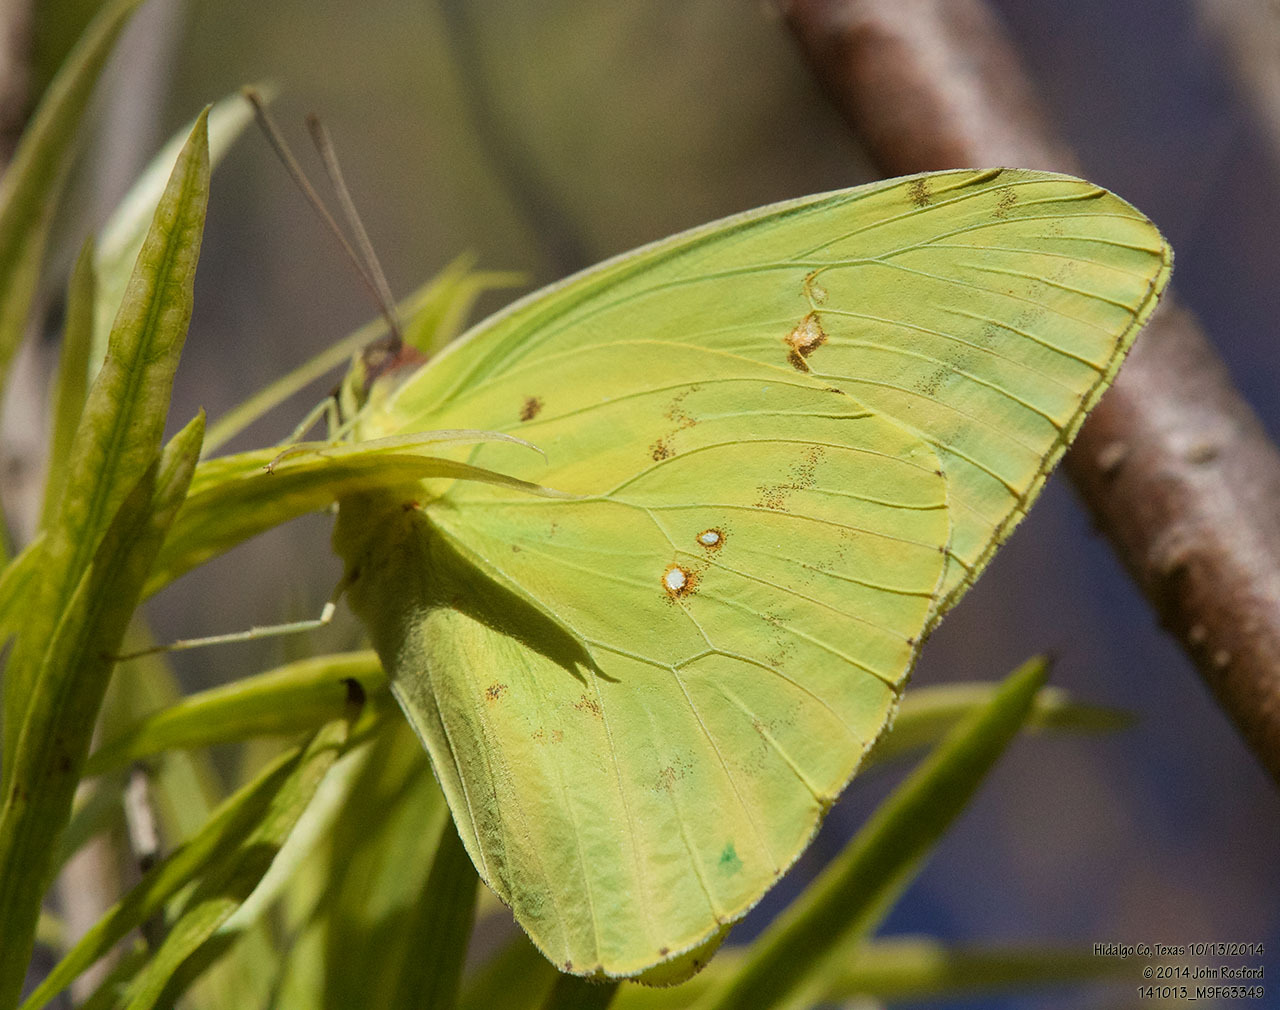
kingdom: Animalia
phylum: Arthropoda
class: Insecta
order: Lepidoptera
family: Pieridae
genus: Phoebis
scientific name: Phoebis sennae
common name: Cloudless sulphur
